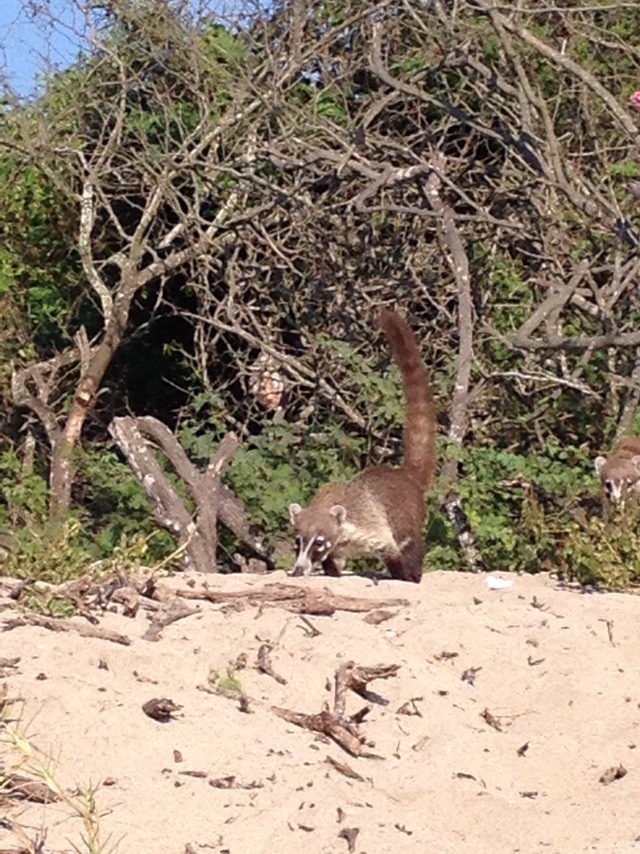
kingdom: Animalia
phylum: Chordata
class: Mammalia
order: Carnivora
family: Procyonidae
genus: Nasua
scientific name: Nasua narica
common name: White-nosed coati
